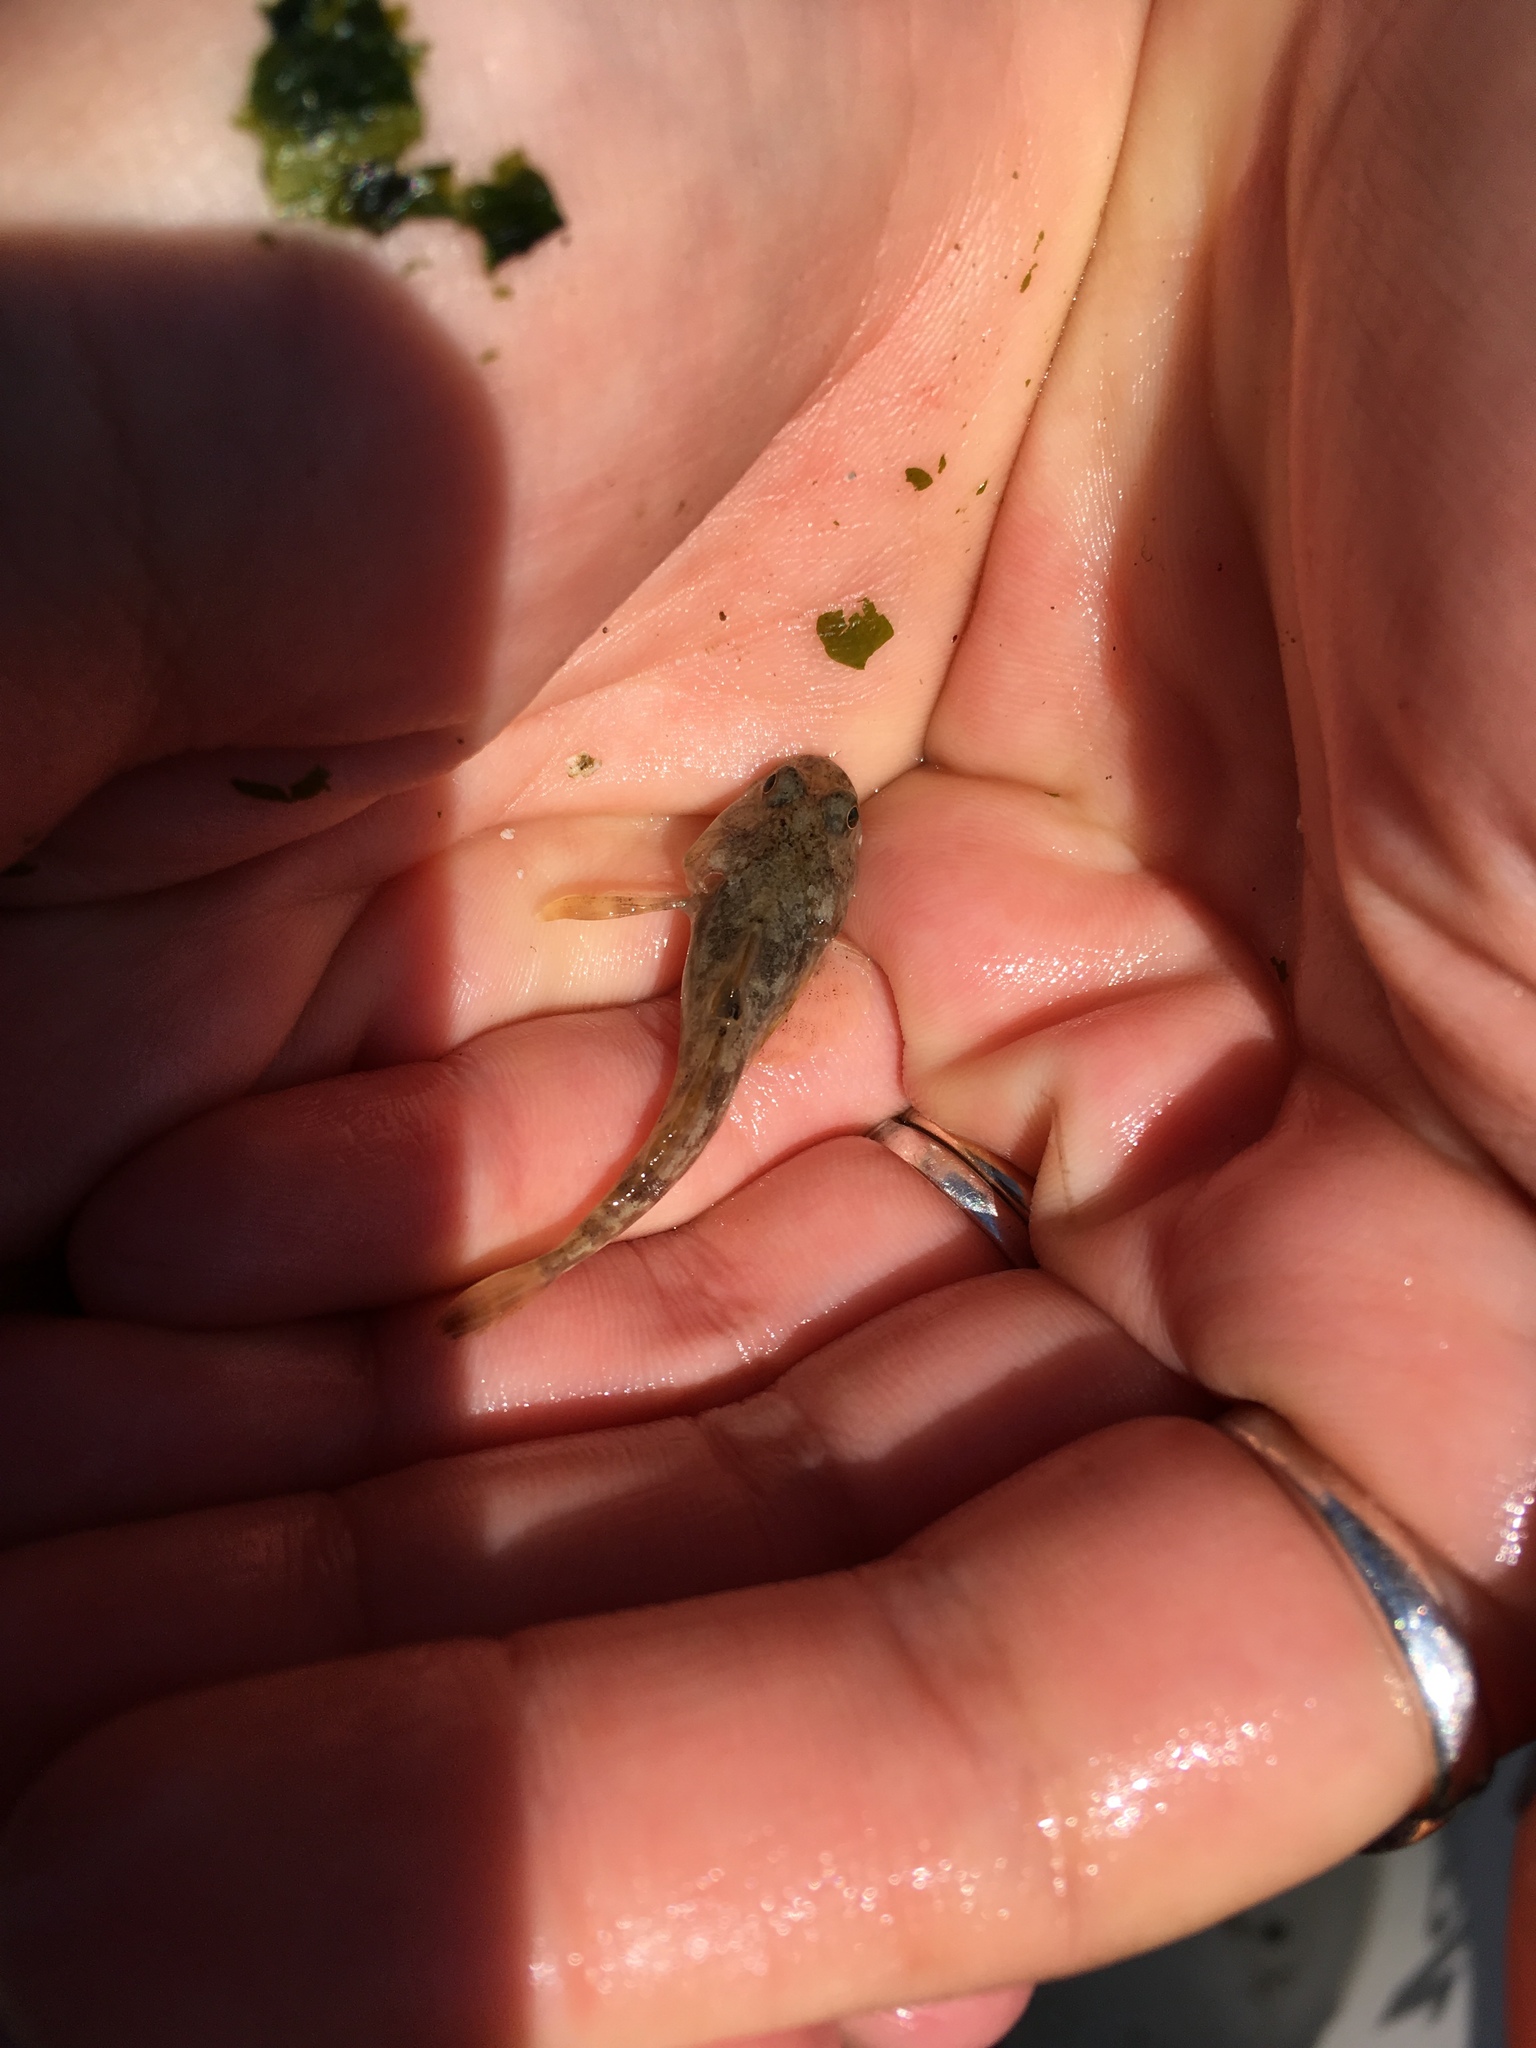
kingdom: Animalia
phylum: Chordata
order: Scorpaeniformes
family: Cottidae
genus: Leptocottus
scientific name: Leptocottus armatus
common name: Pacific staghorn sculpin
